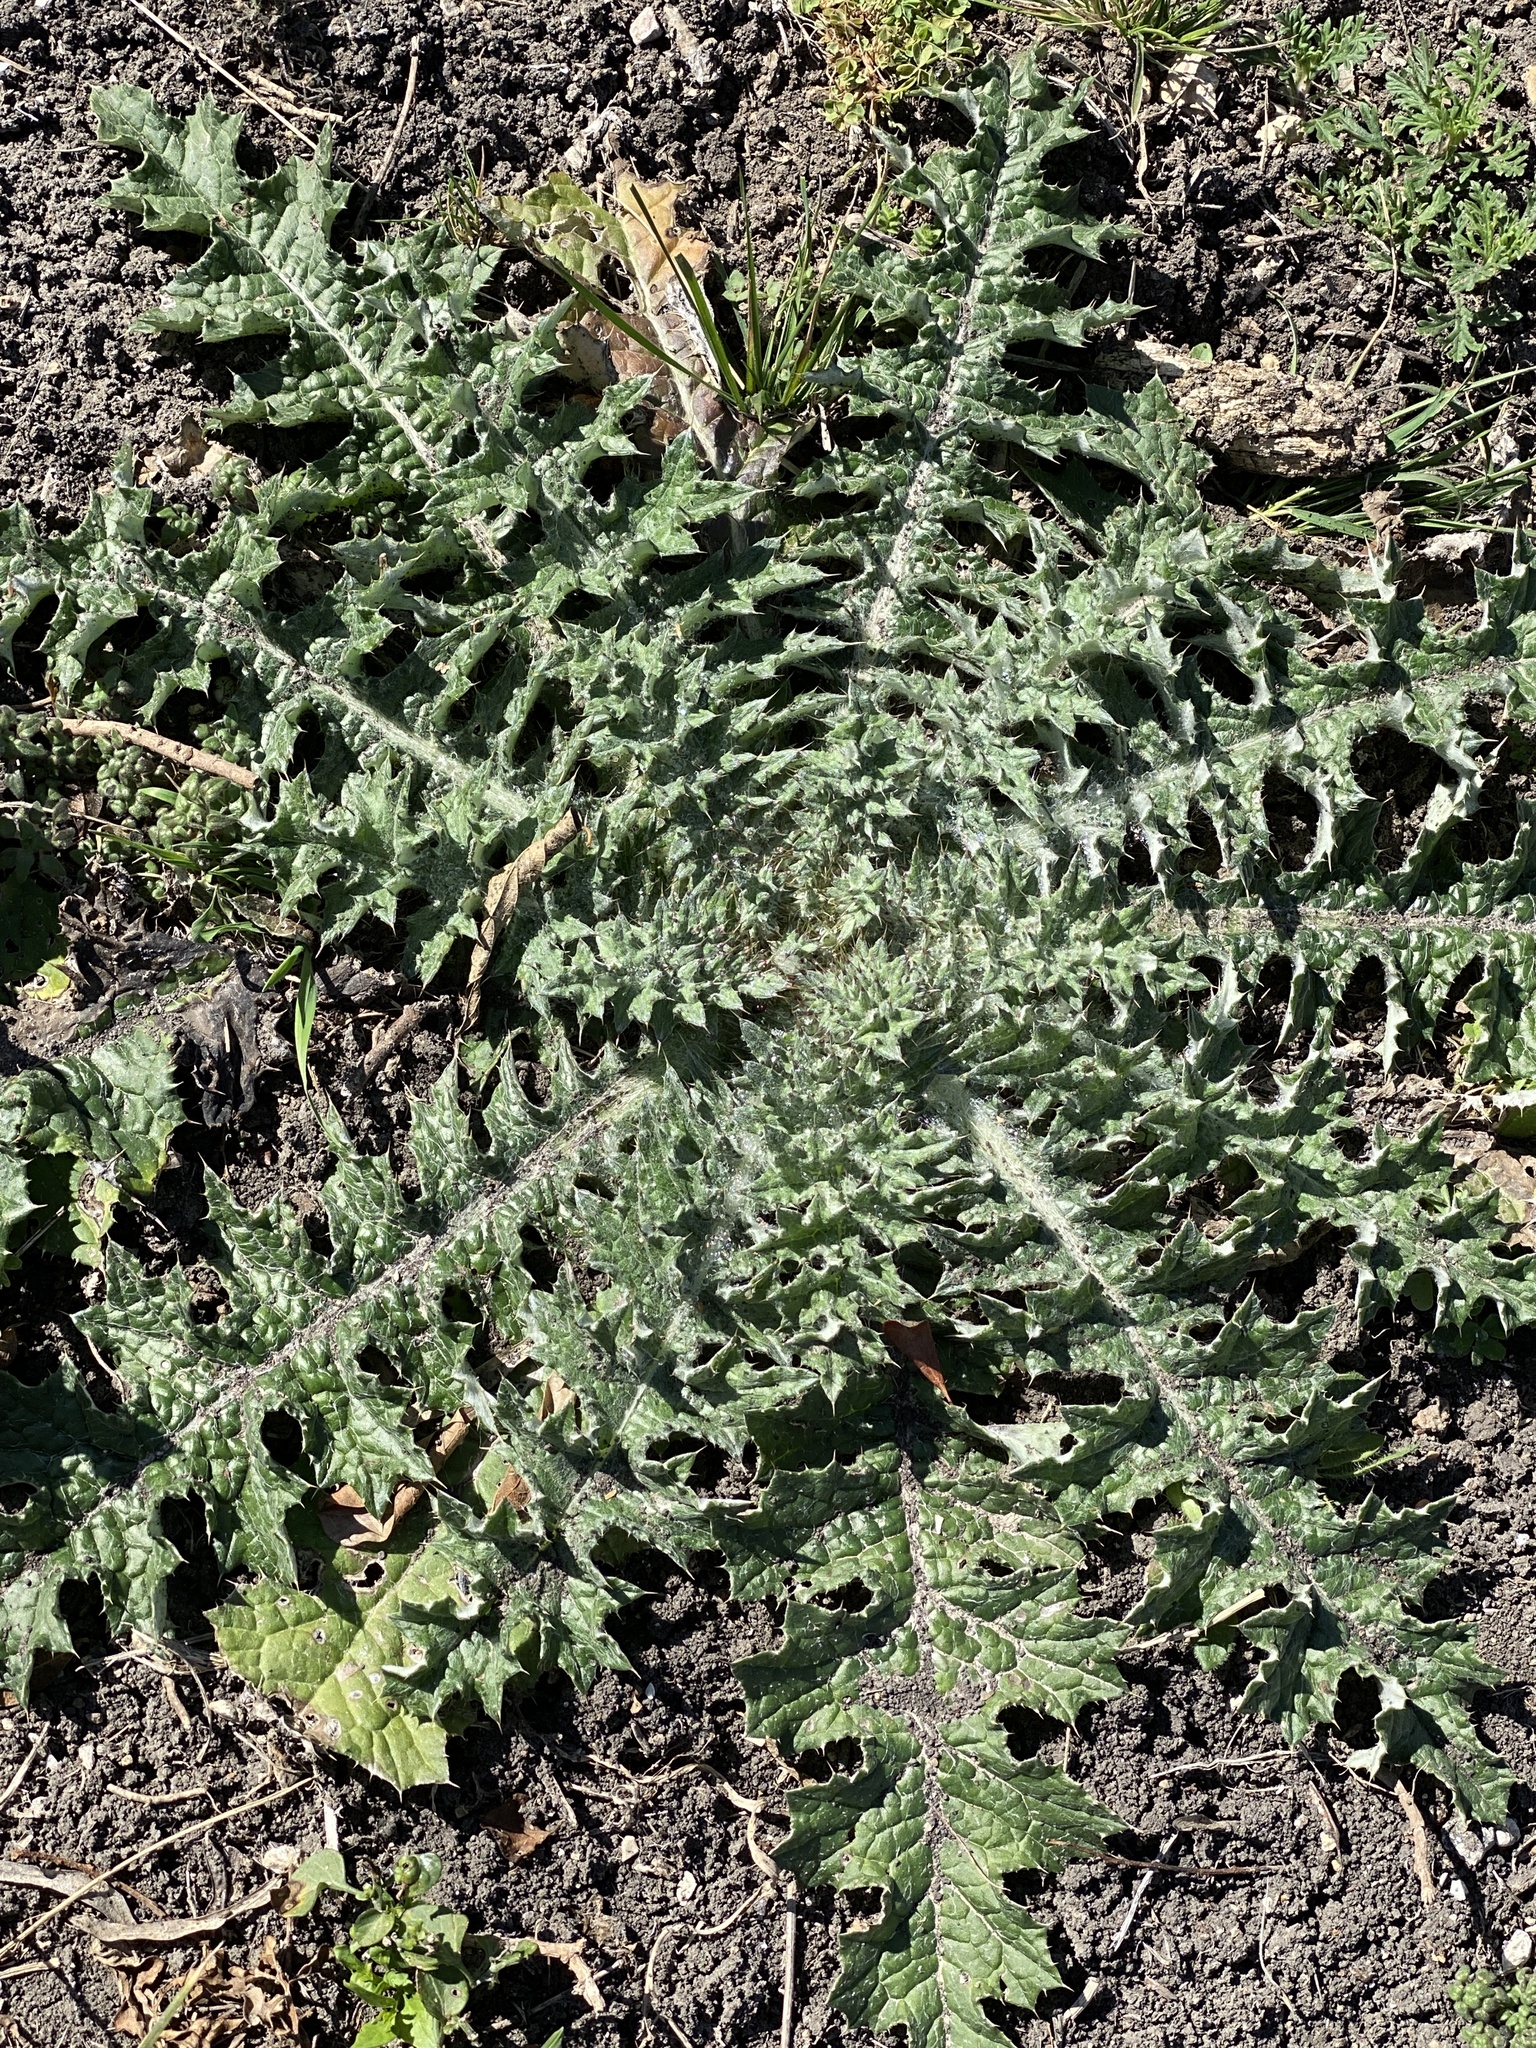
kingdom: Plantae
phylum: Tracheophyta
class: Magnoliopsida
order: Asterales
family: Asteraceae
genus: Cirsium
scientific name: Cirsium texanum
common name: Texas purple thistle
